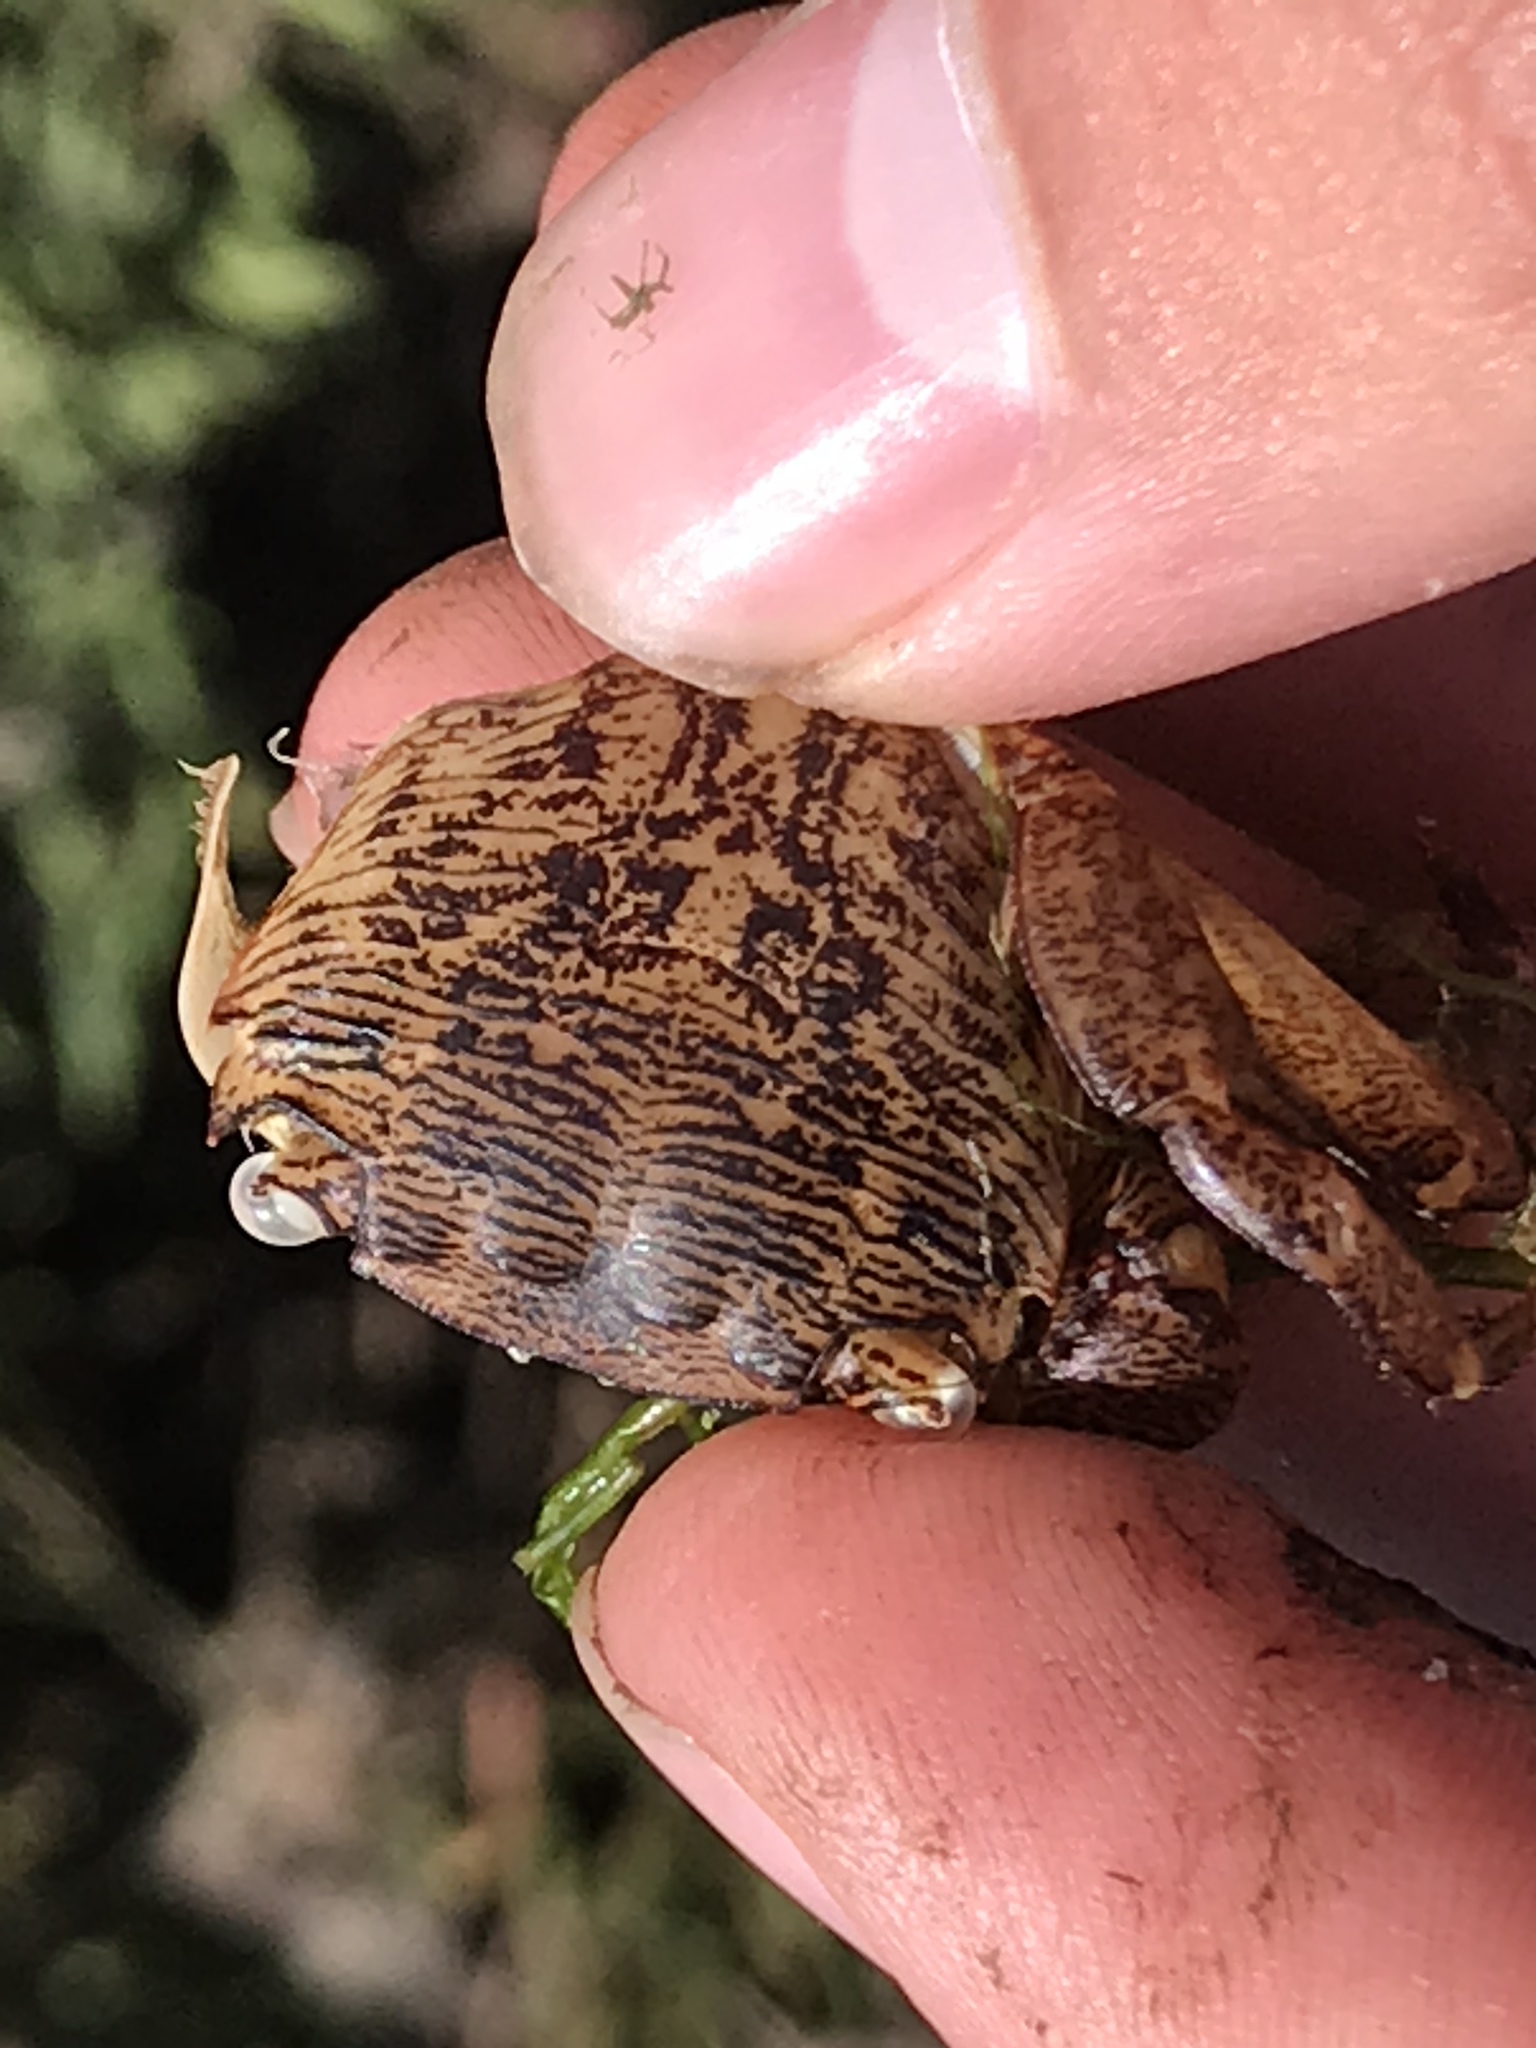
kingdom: Animalia
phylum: Arthropoda
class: Malacostraca
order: Decapoda
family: Grapsidae
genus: Pachygrapsus
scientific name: Pachygrapsus crassipes
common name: Striped shore crab
